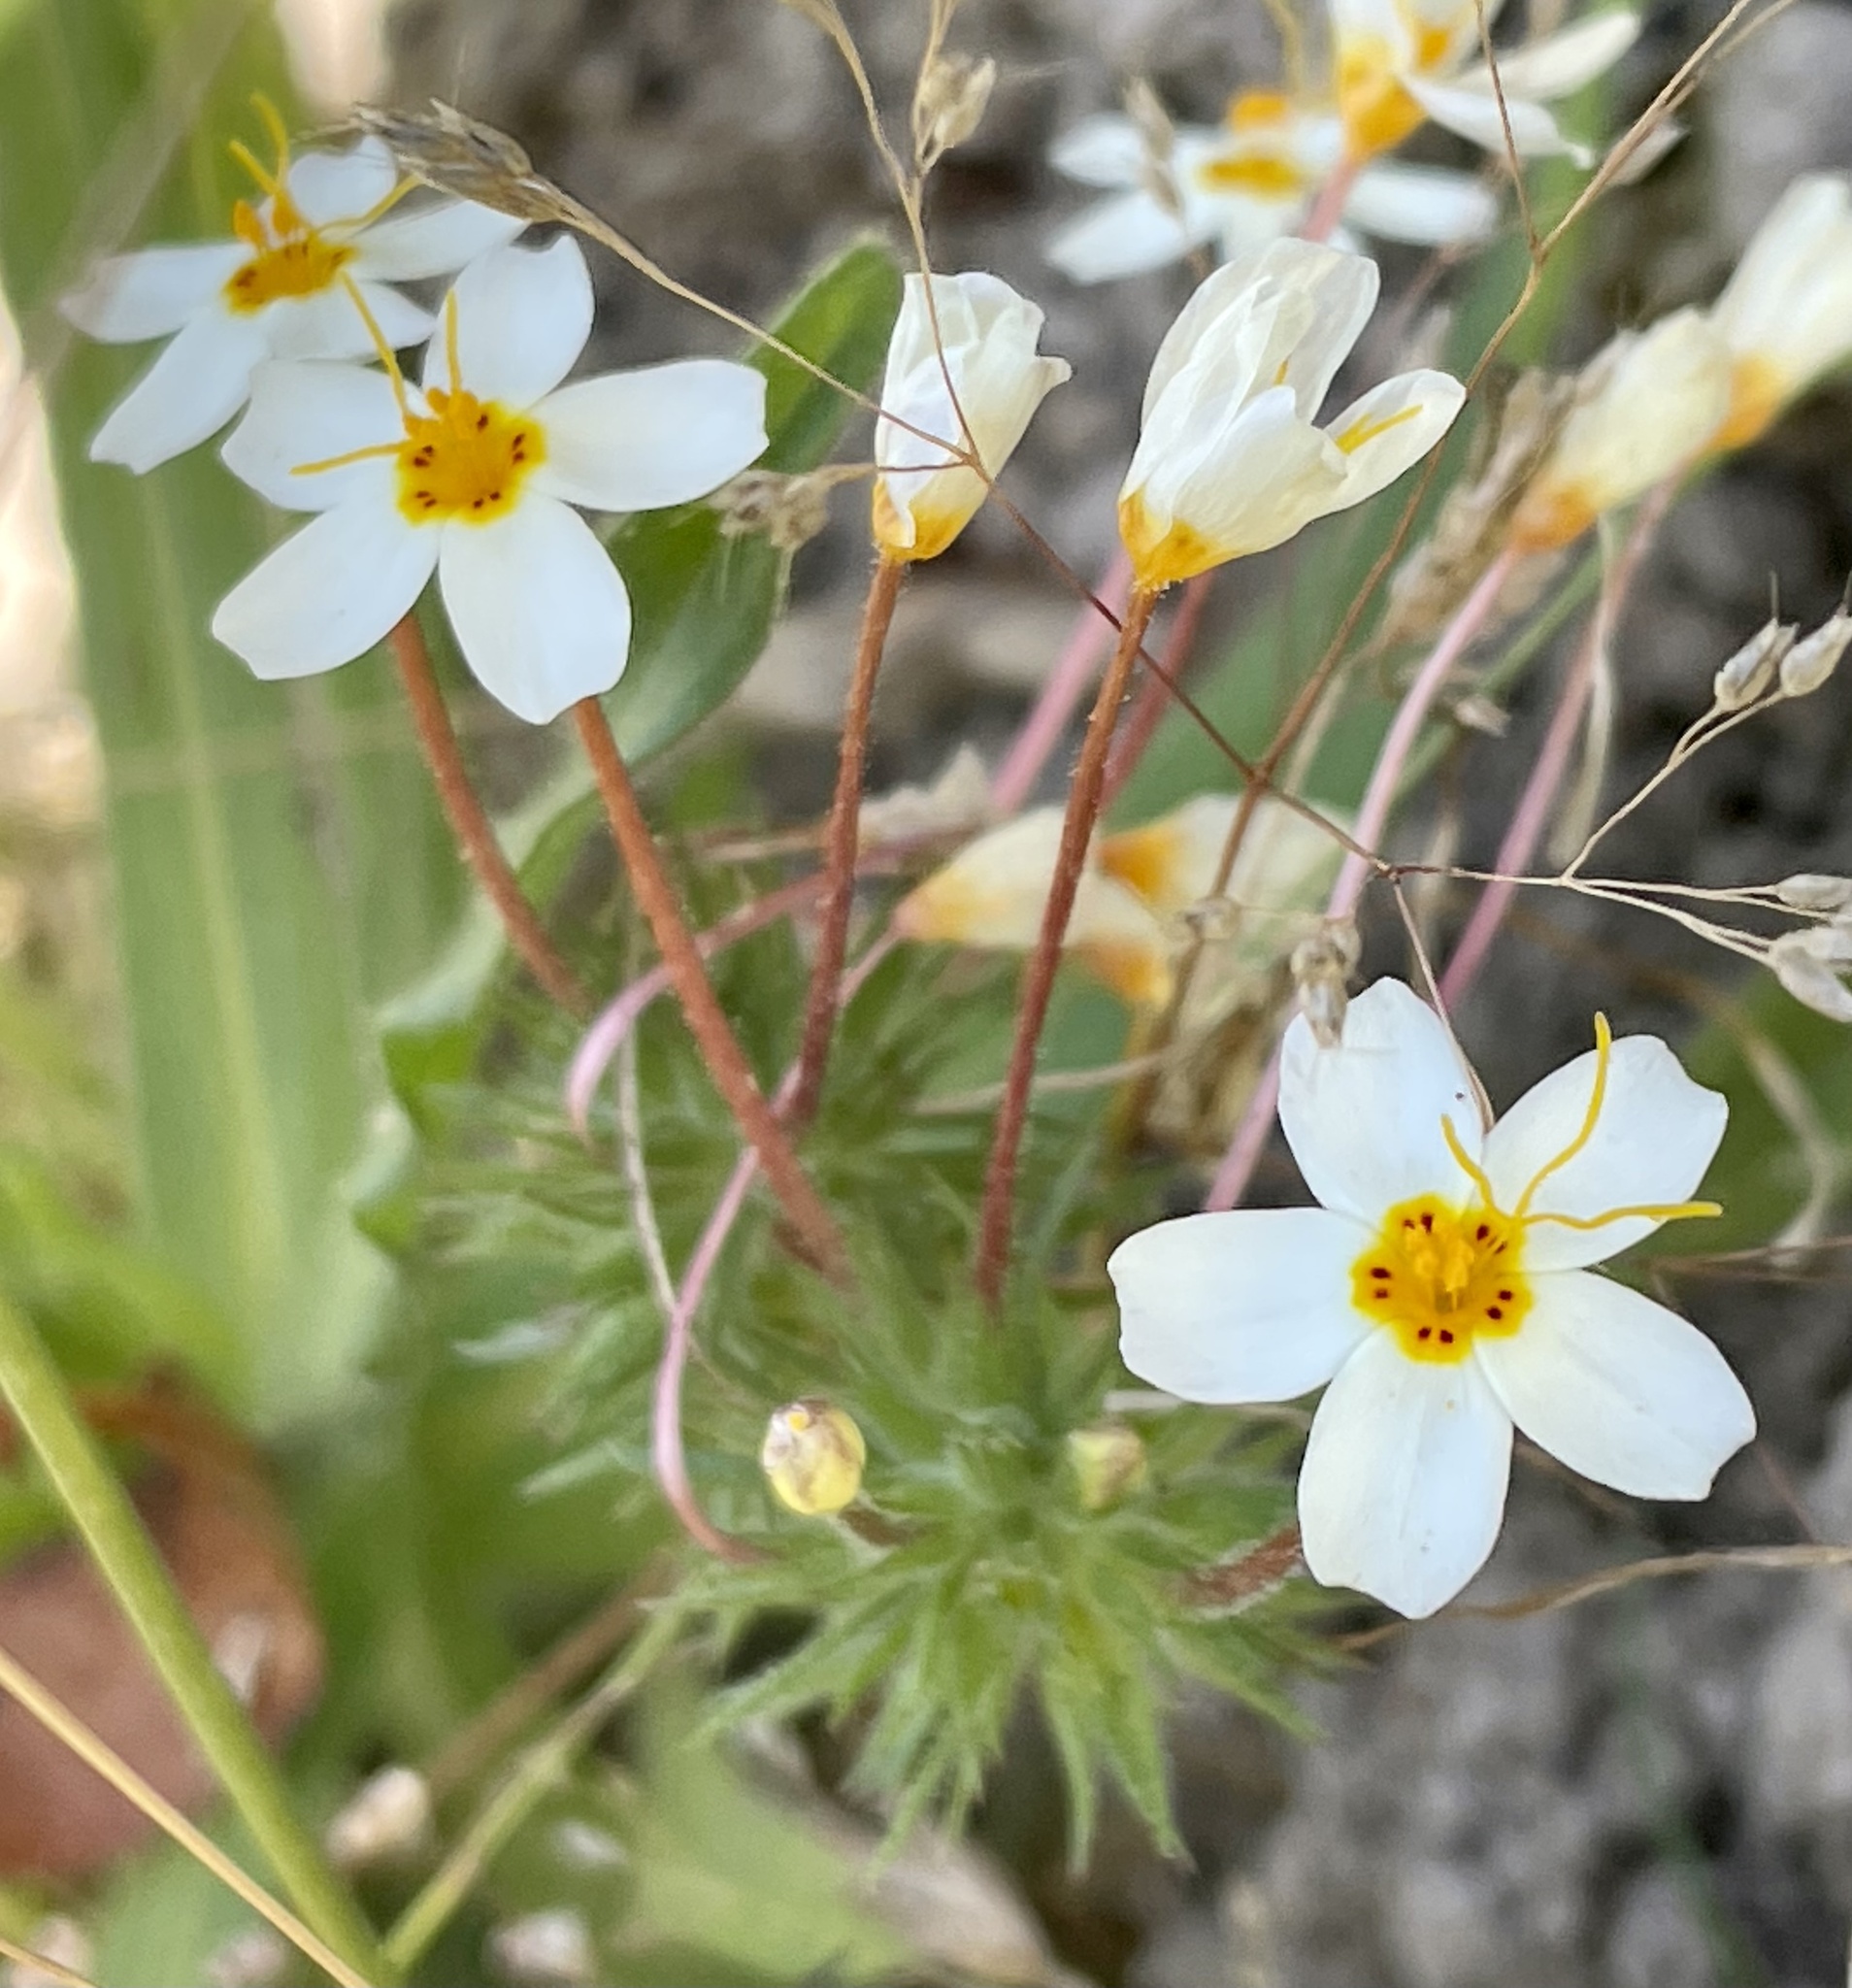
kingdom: Plantae
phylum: Tracheophyta
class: Magnoliopsida
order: Ericales
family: Polemoniaceae
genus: Leptosiphon
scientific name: Leptosiphon parviflorus
